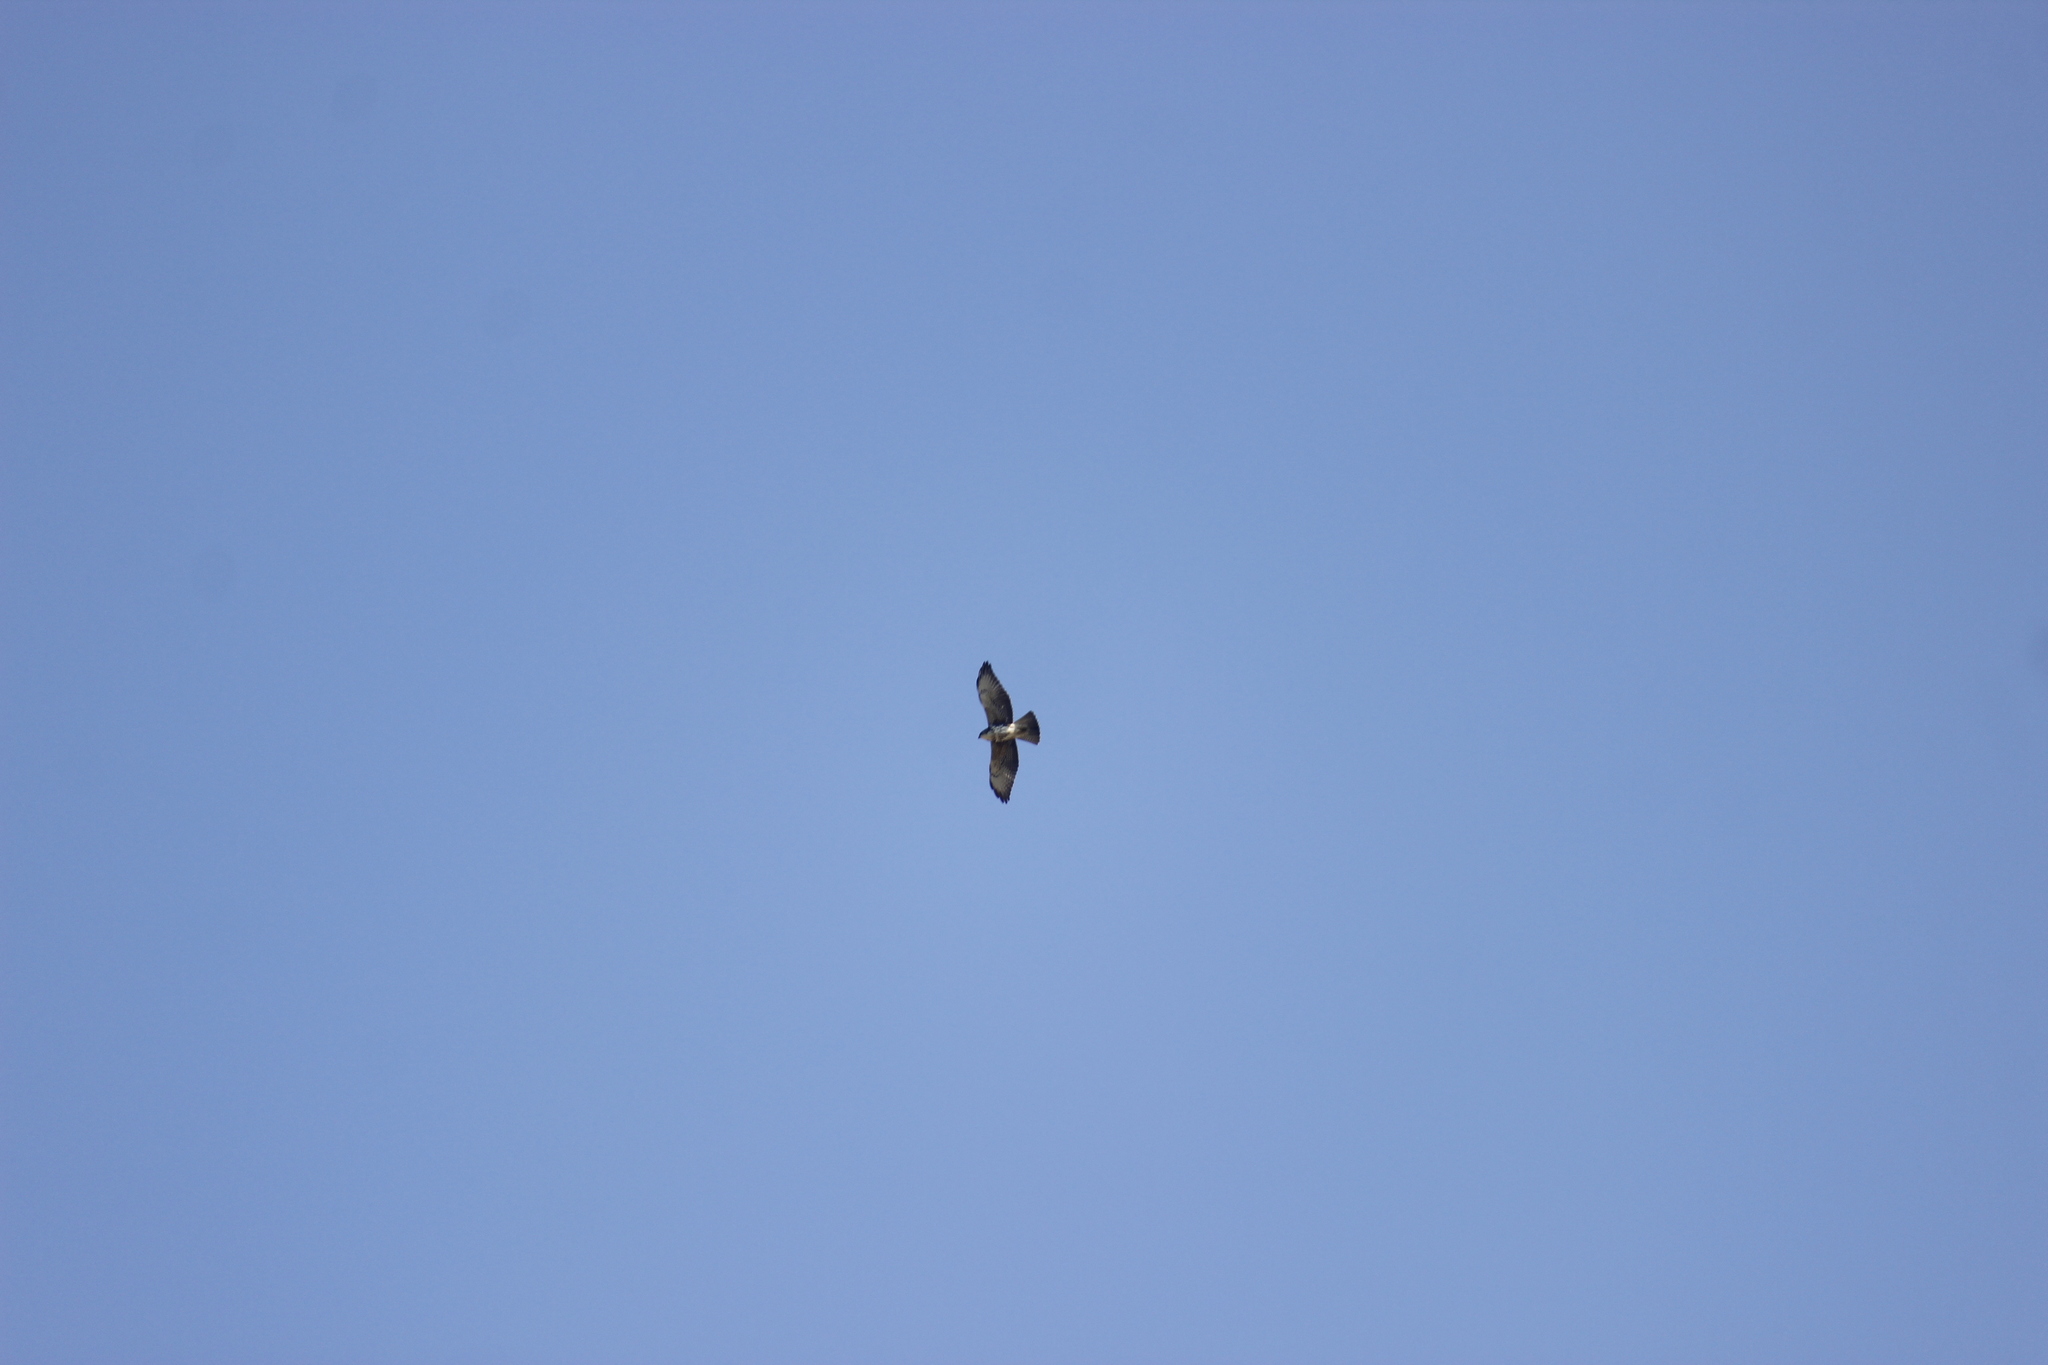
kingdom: Animalia
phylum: Chordata
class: Aves
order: Accipitriformes
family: Accipitridae
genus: Buteo
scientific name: Buteo albigula
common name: White-throated hawk
